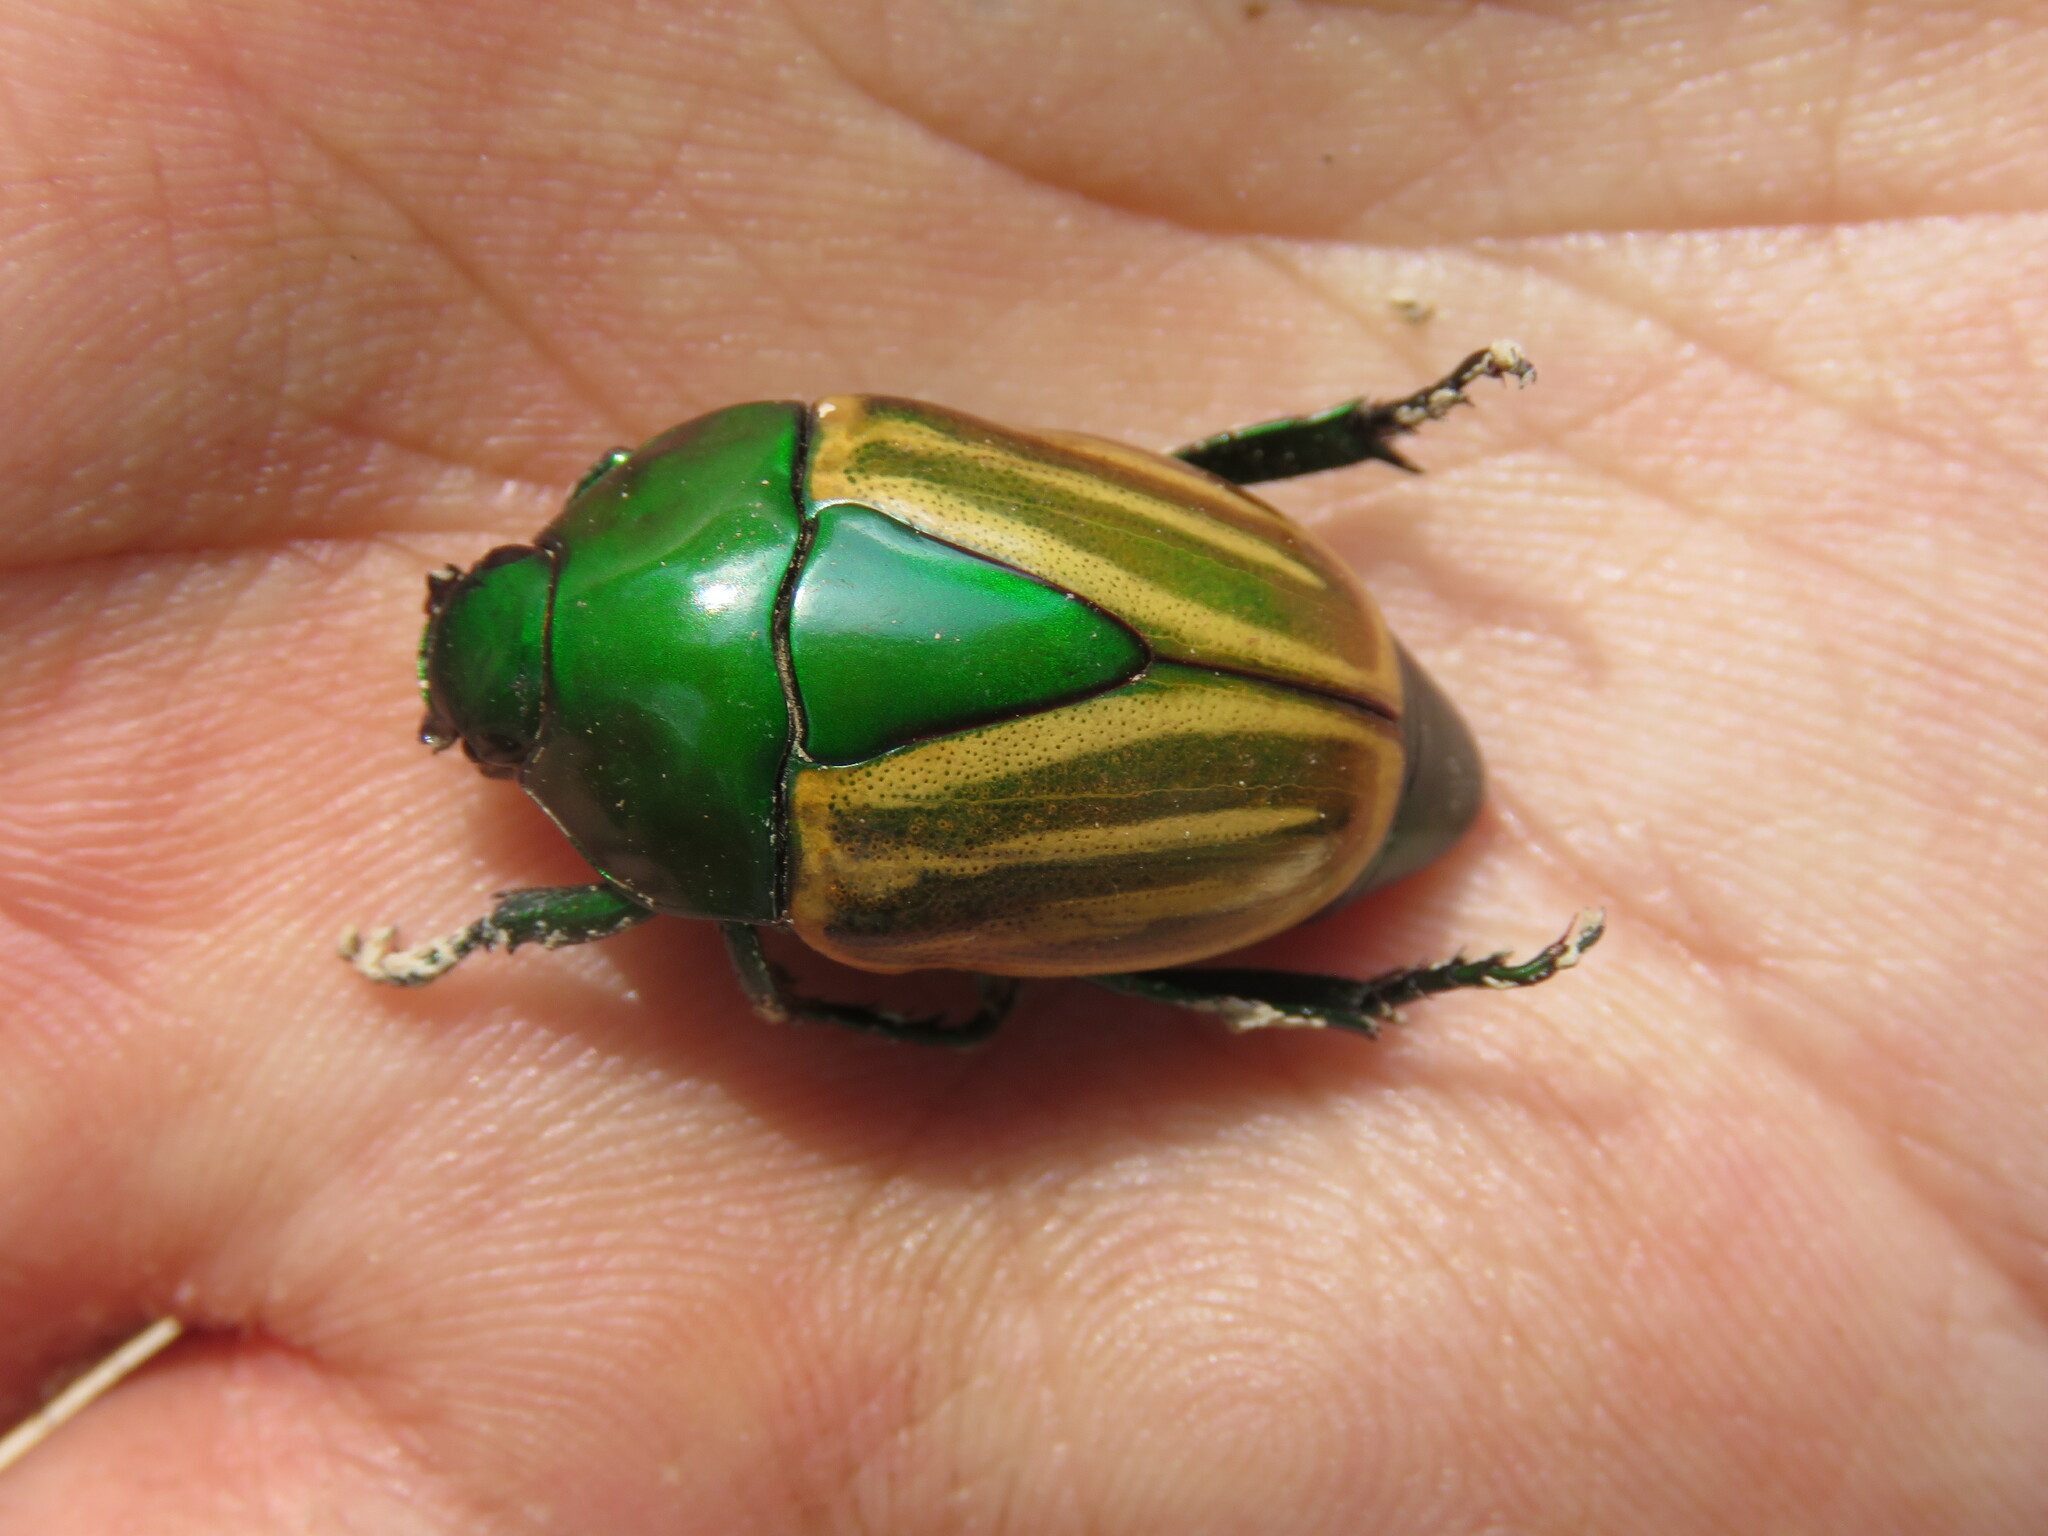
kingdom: Animalia
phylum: Arthropoda
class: Insecta
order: Coleoptera
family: Scarabaeidae
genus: Macraspis
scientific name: Macraspis festiva
